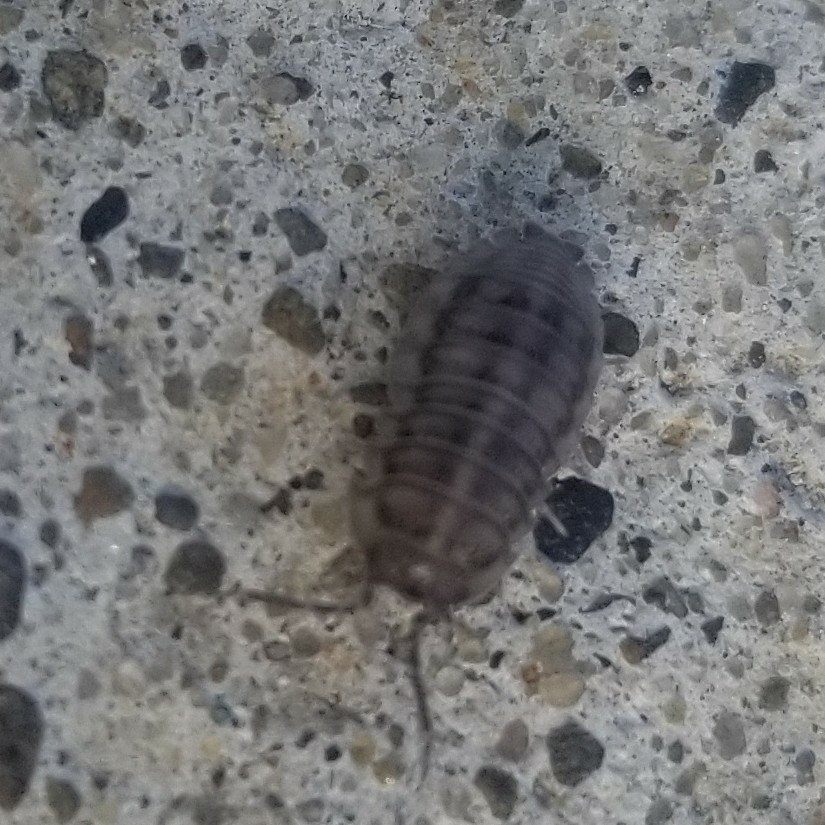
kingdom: Animalia
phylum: Arthropoda
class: Malacostraca
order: Isopoda
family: Armadillidiidae
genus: Armadillidium
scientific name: Armadillidium nasatum
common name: Isopod
